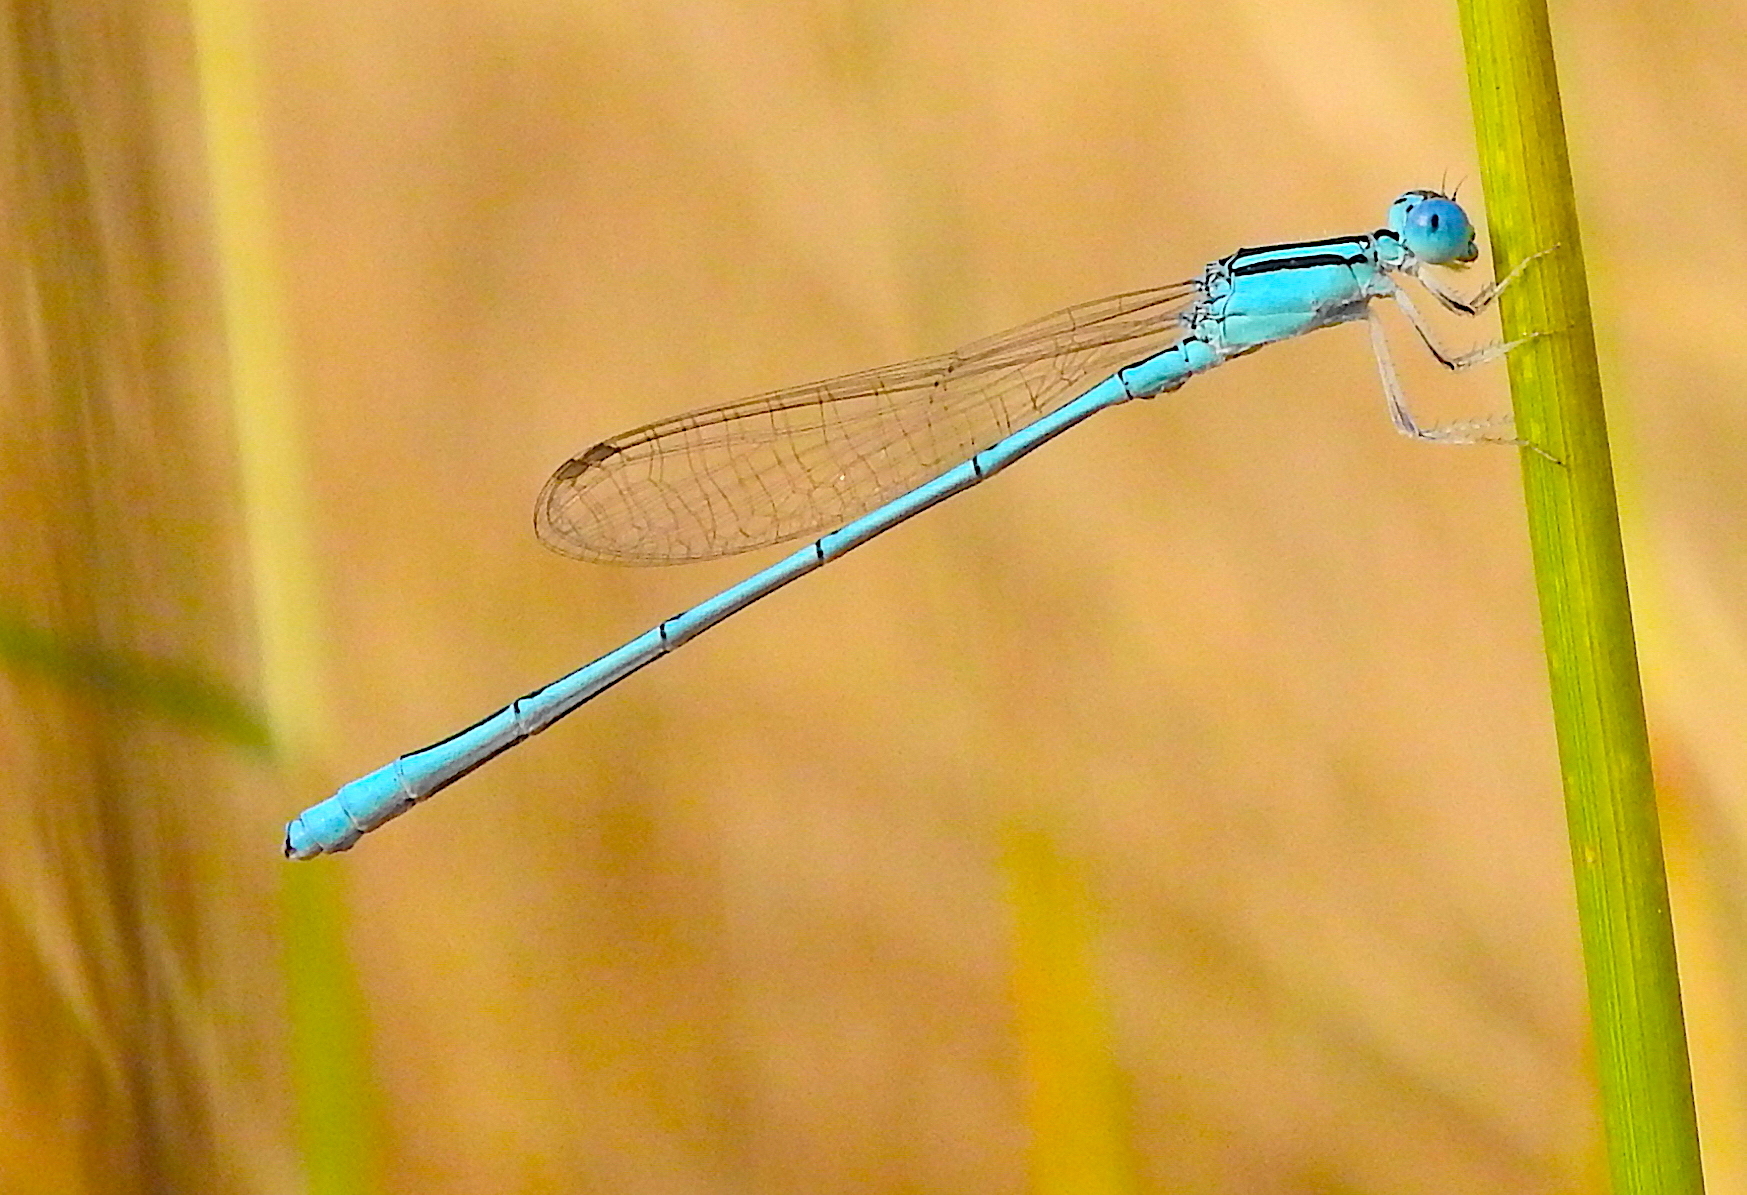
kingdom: Animalia
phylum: Arthropoda
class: Insecta
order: Odonata
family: Coenagrionidae
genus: Amphiallagma
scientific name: Amphiallagma parvum
